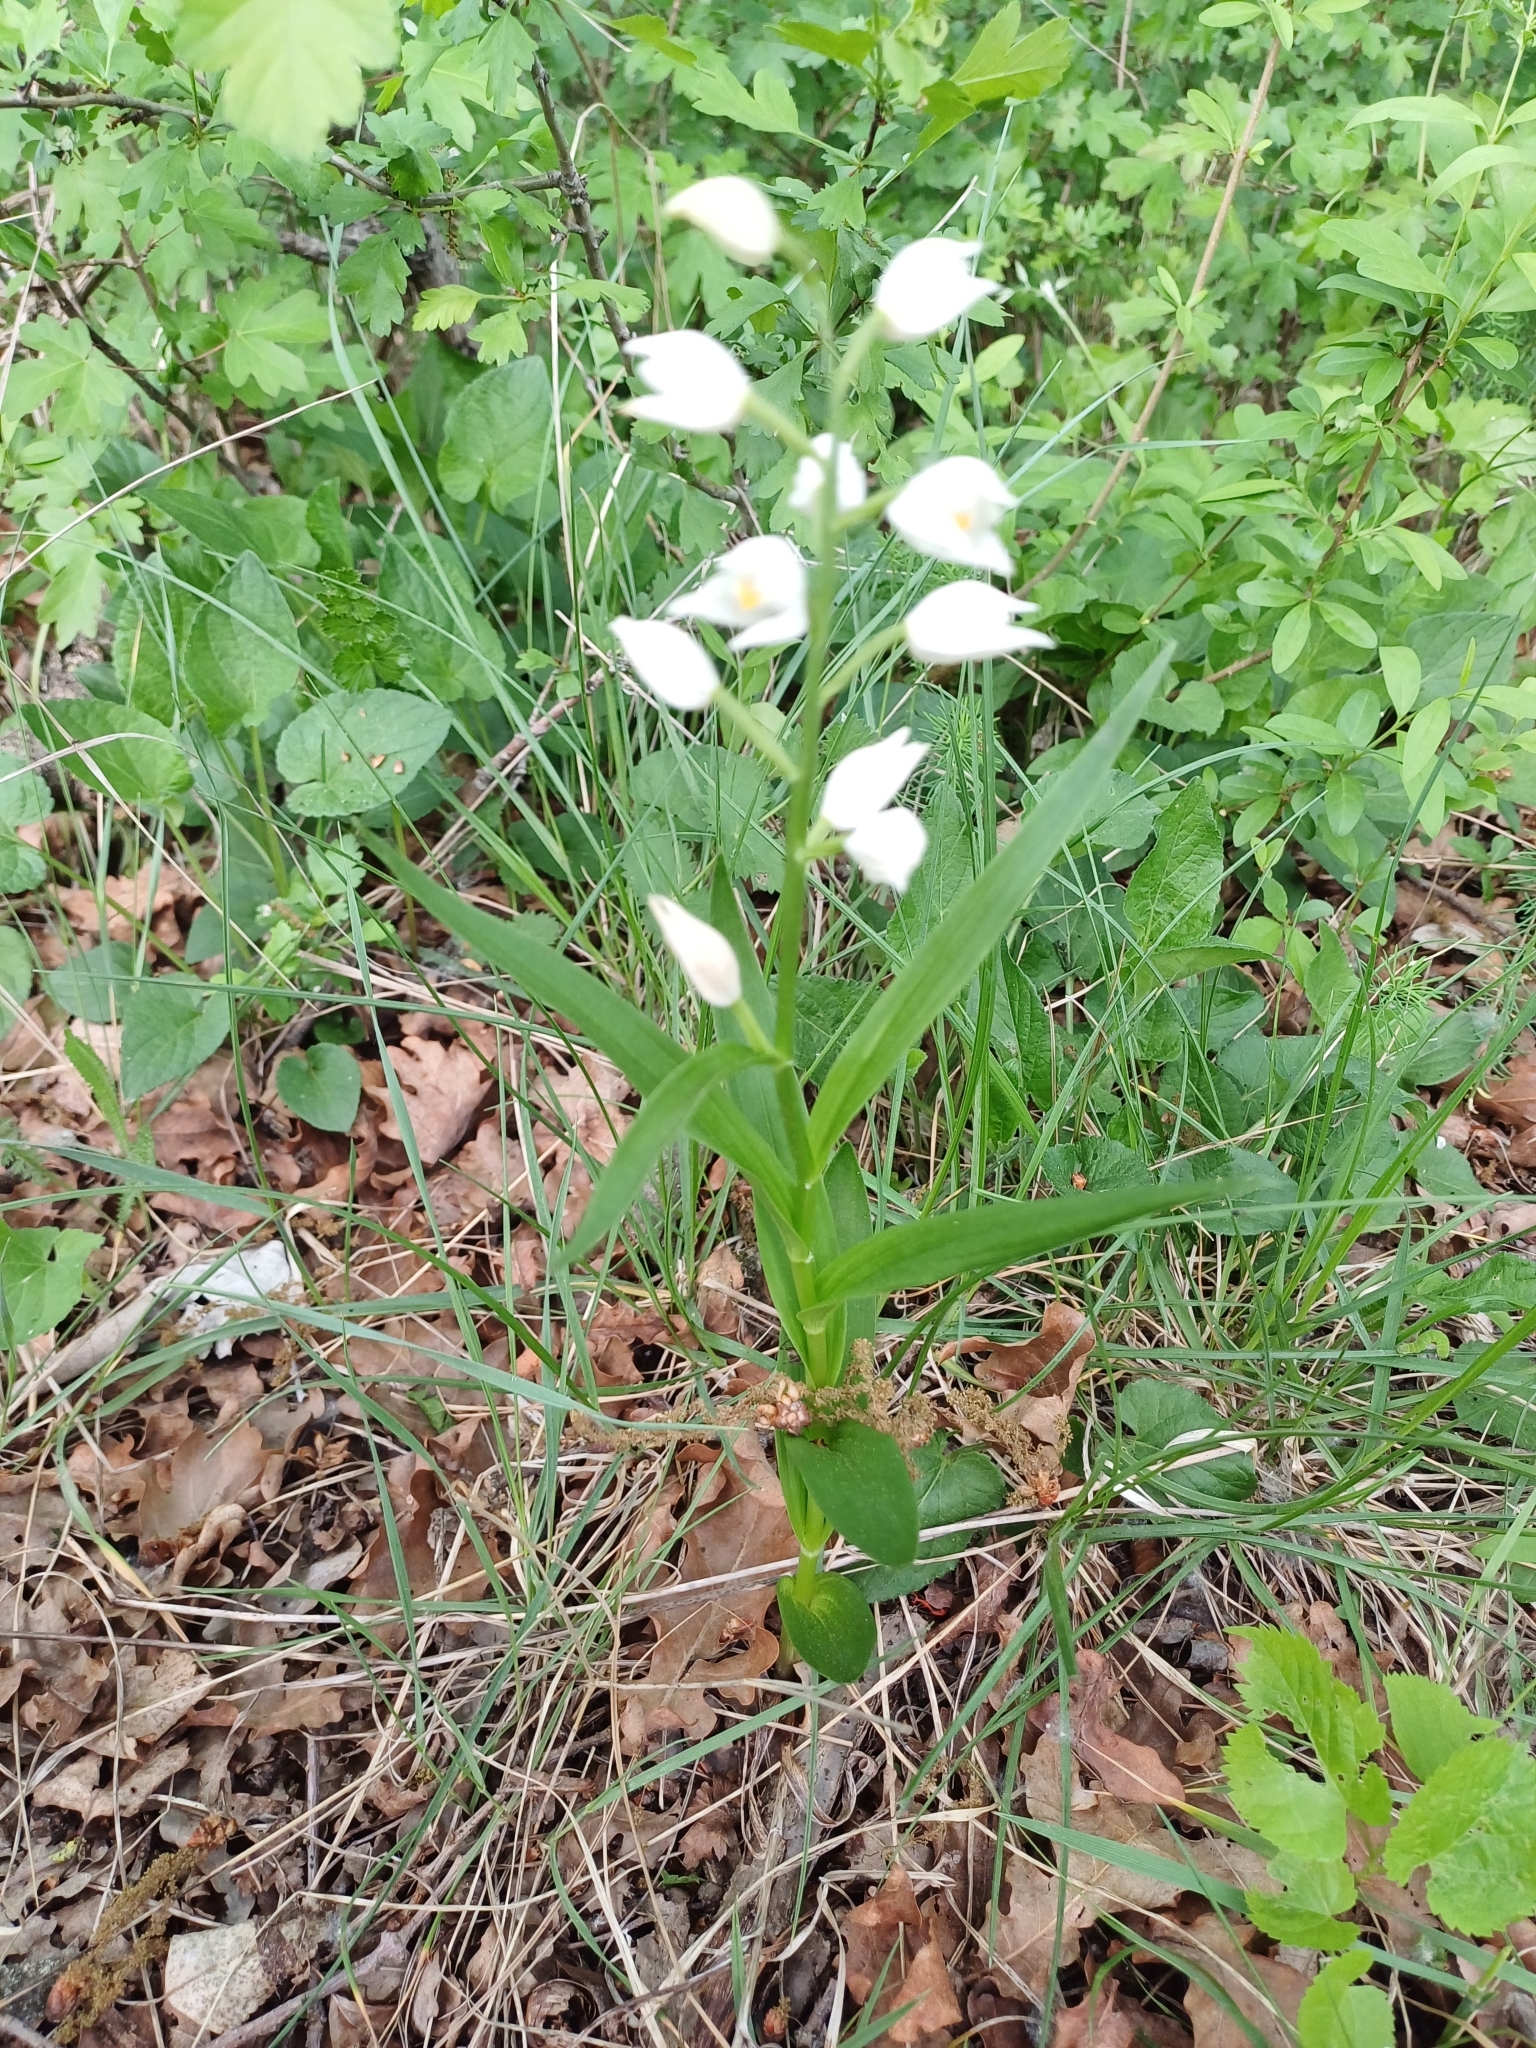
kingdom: Plantae
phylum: Tracheophyta
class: Liliopsida
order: Asparagales
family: Orchidaceae
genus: Cephalanthera
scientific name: Cephalanthera longifolia
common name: Narrow-leaved helleborine
